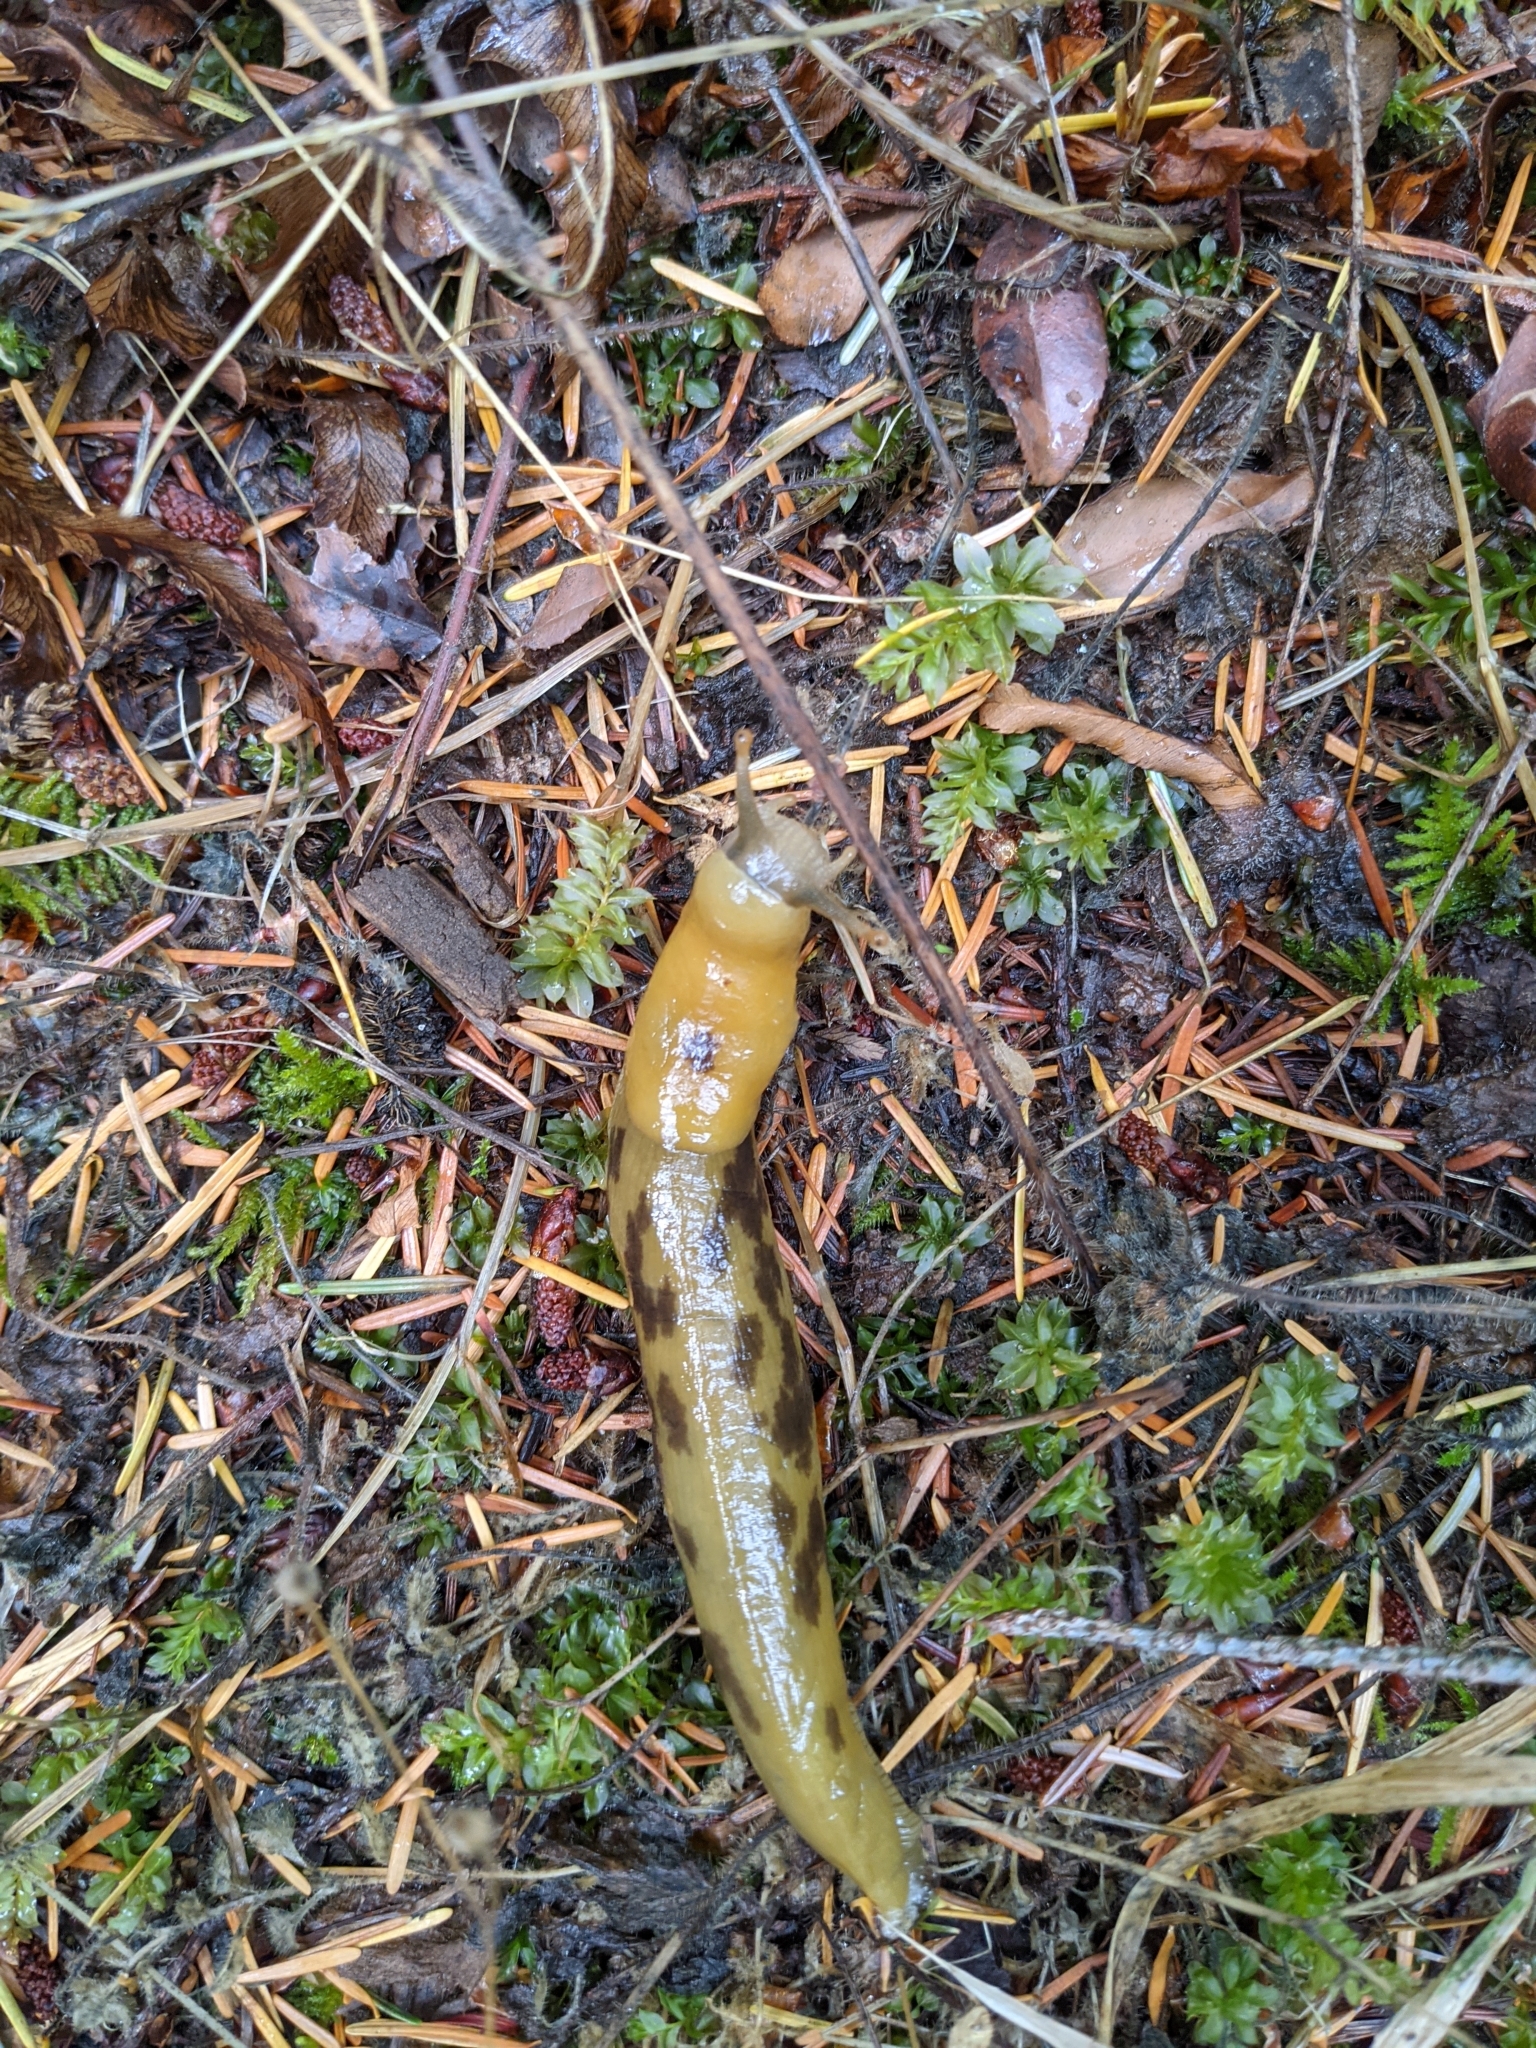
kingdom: Animalia
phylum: Mollusca
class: Gastropoda
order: Stylommatophora
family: Ariolimacidae
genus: Ariolimax
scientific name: Ariolimax columbianus
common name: Pacific banana slug
